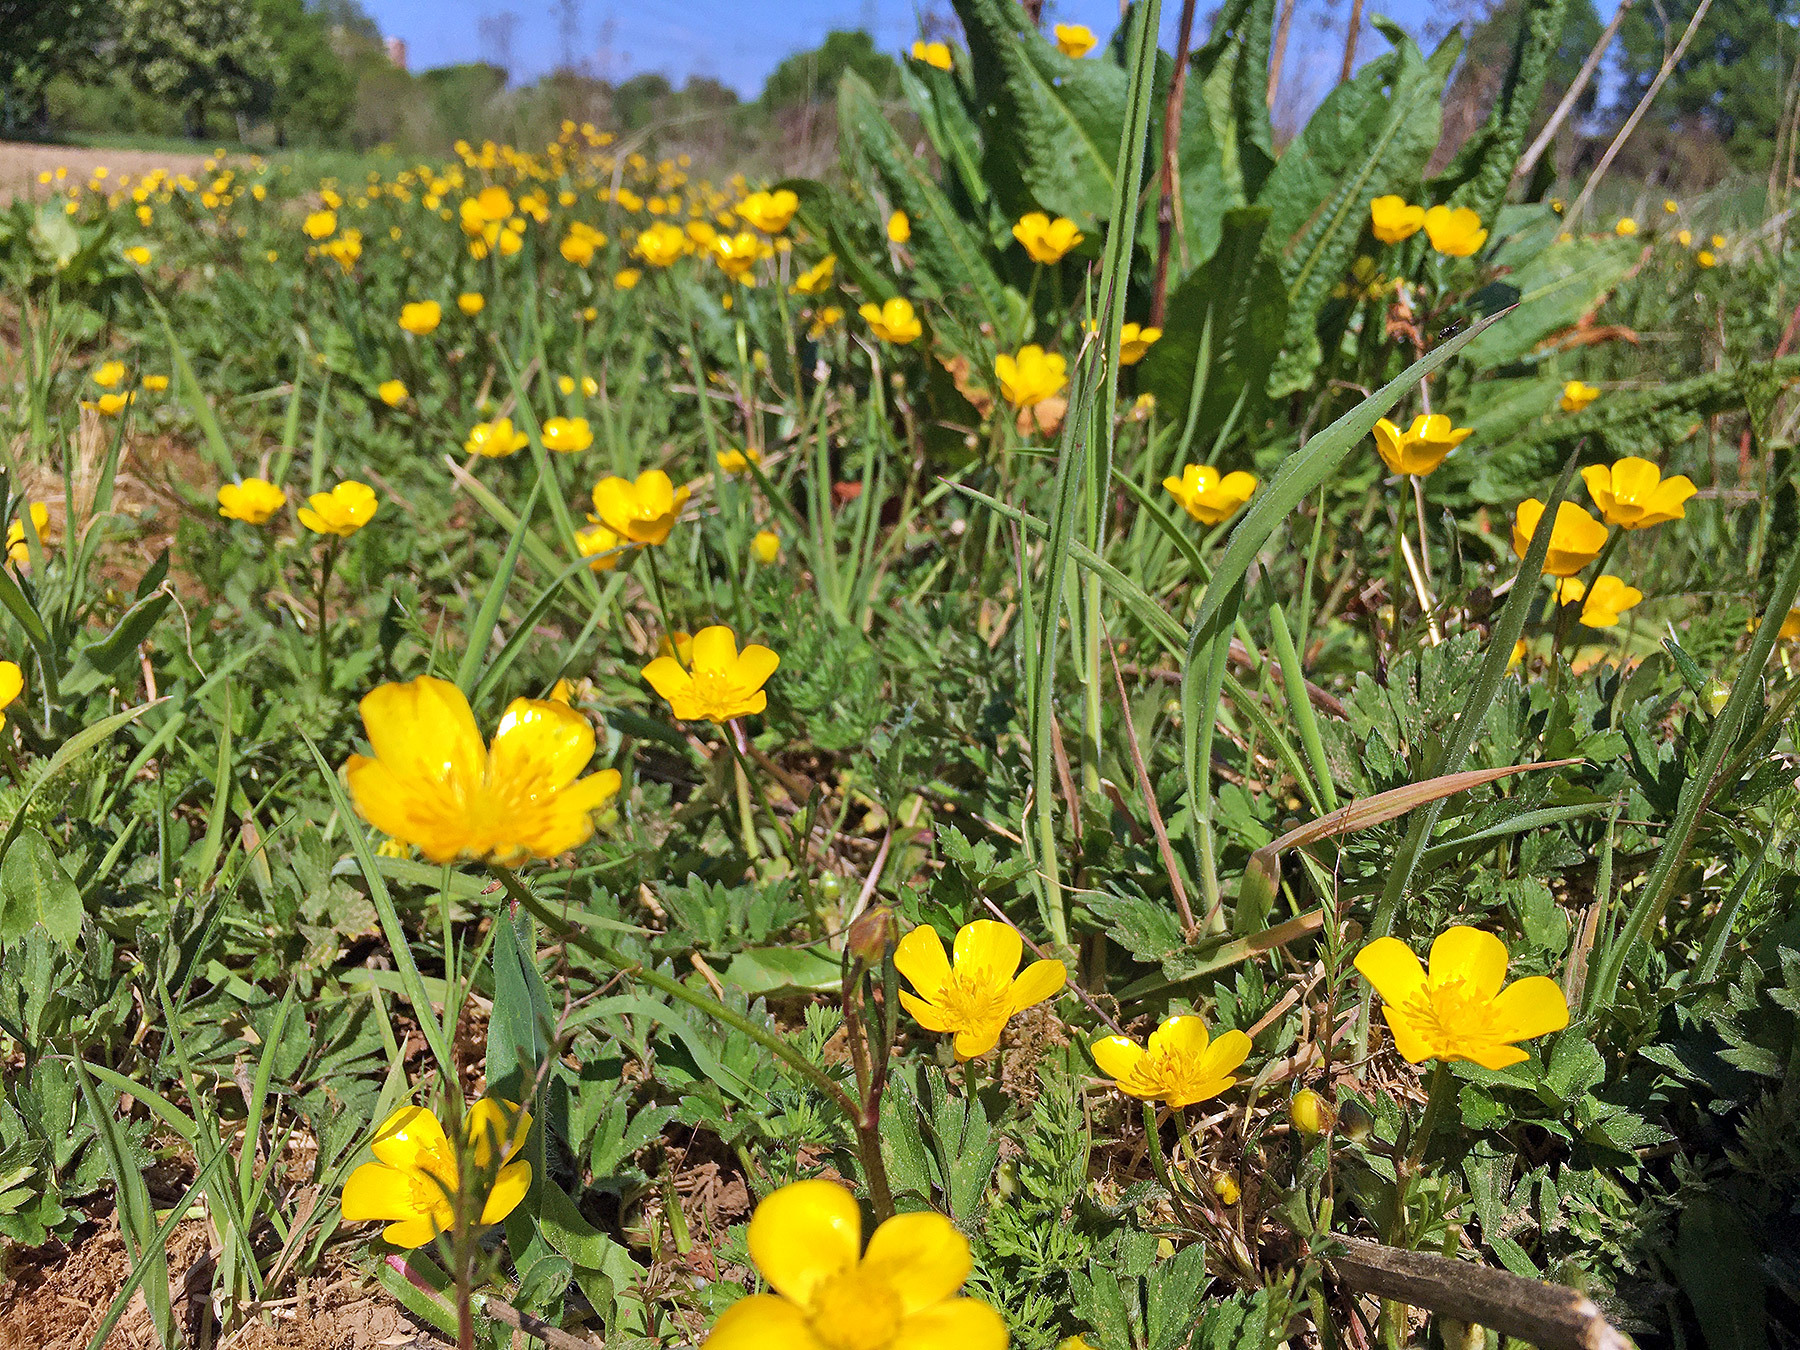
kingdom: Plantae
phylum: Tracheophyta
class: Magnoliopsida
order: Ranunculales
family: Ranunculaceae
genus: Ranunculus
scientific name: Ranunculus repens
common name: Creeping buttercup
